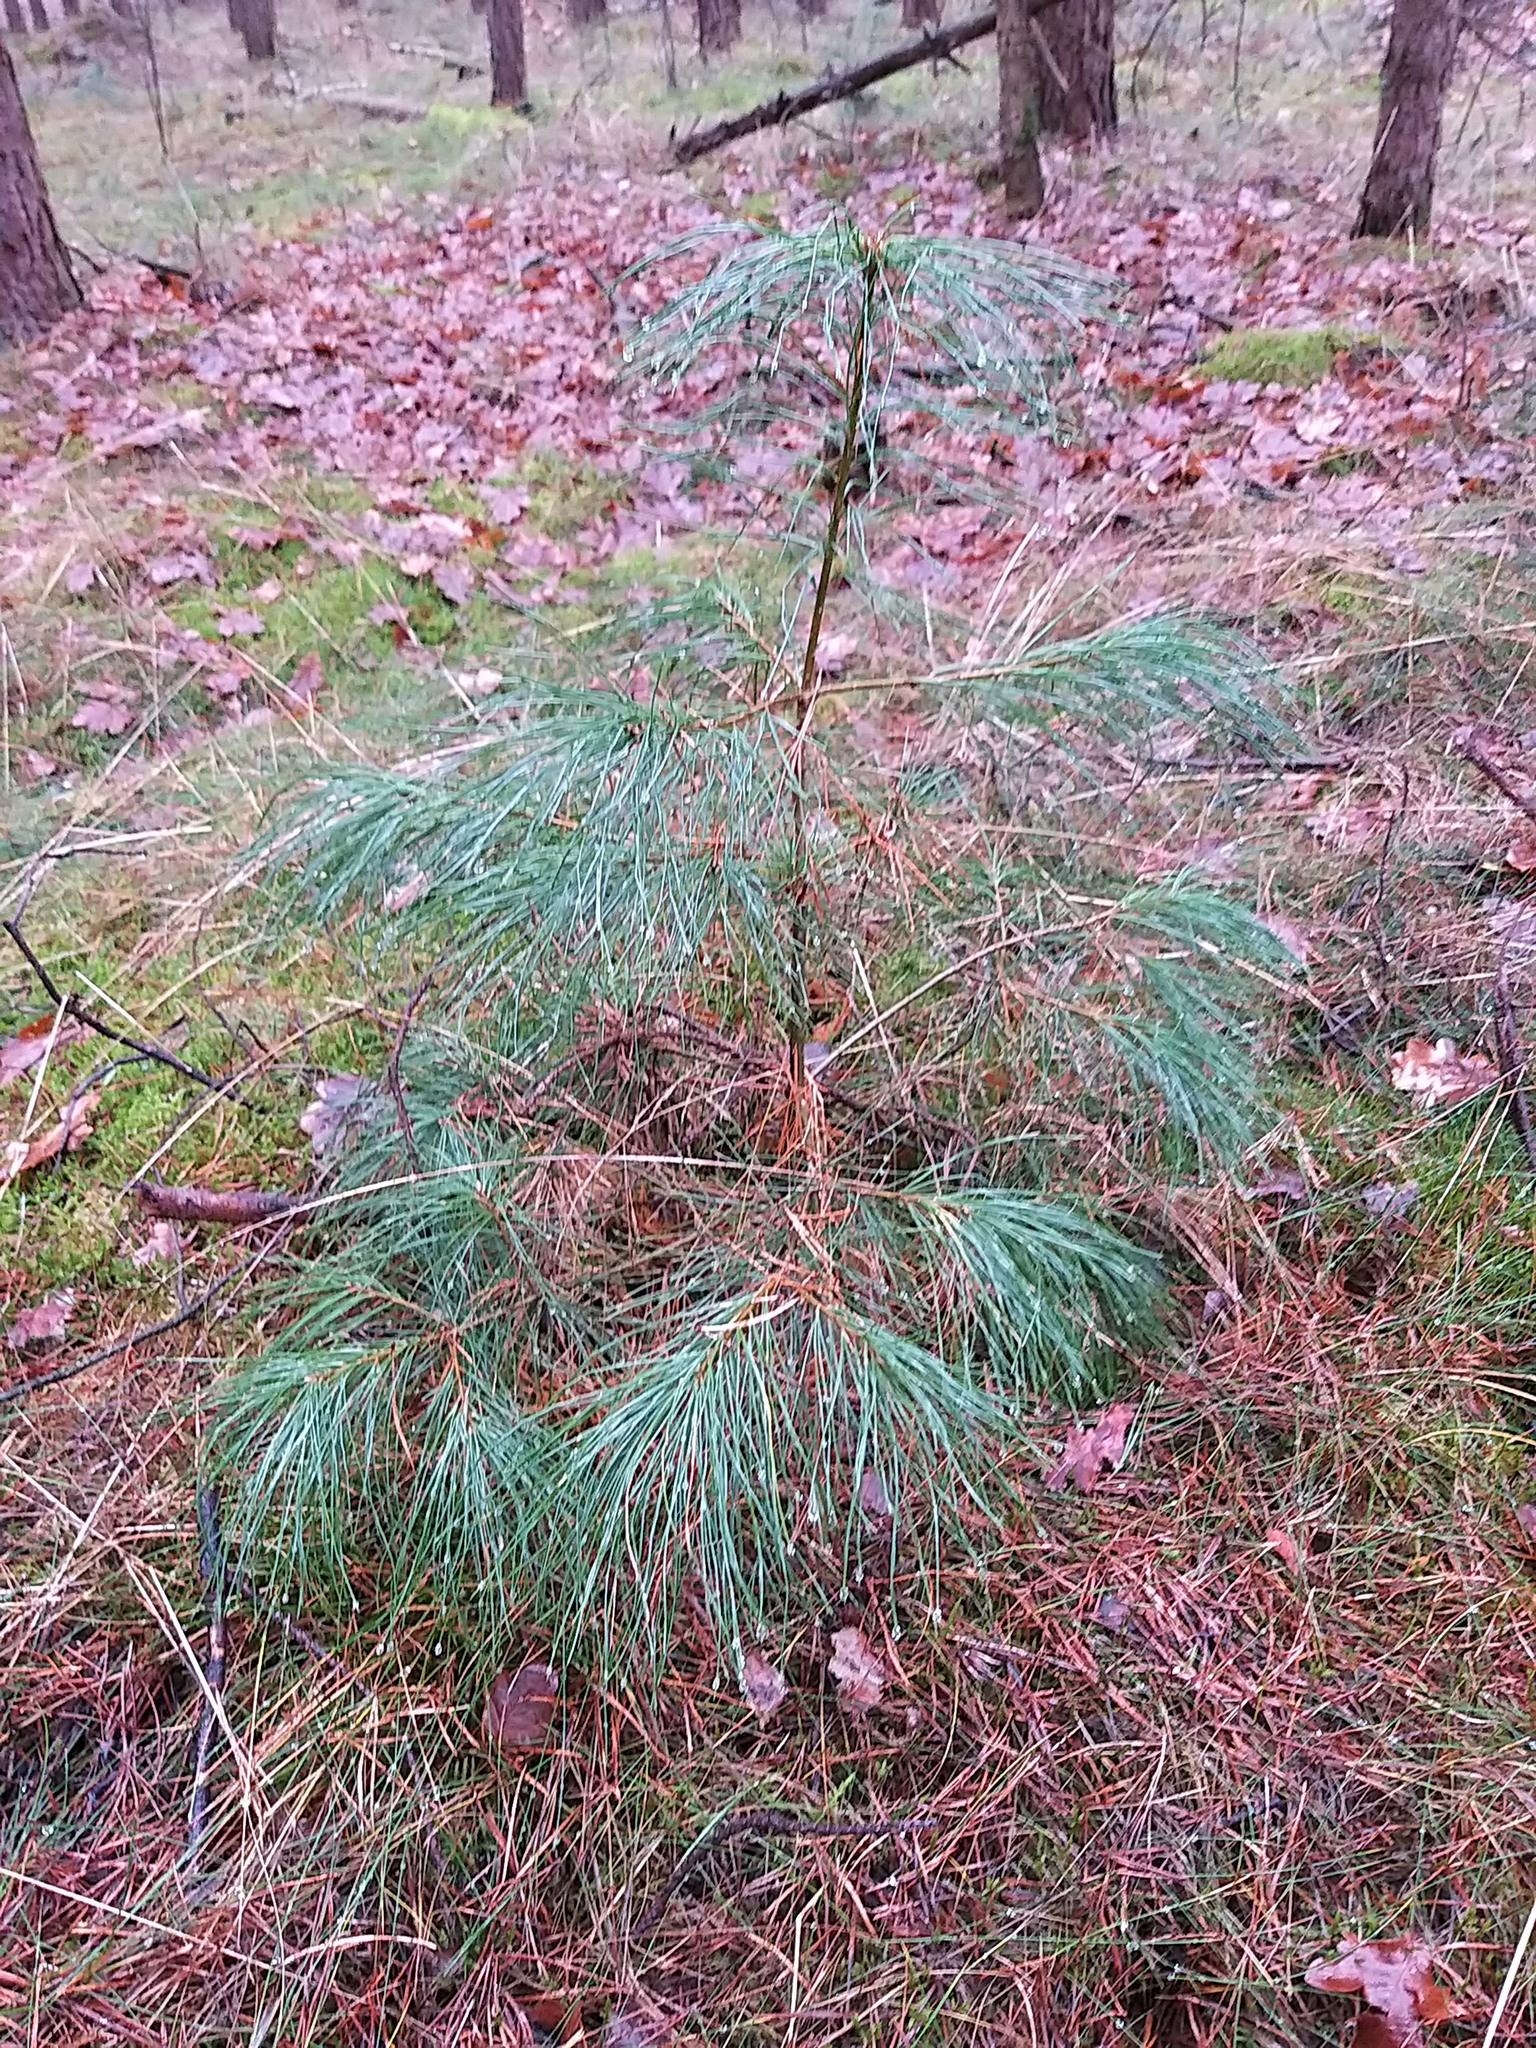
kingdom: Plantae
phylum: Tracheophyta
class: Pinopsida
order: Pinales
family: Pinaceae
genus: Pinus
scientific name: Pinus strobus
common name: Weymouth pine
